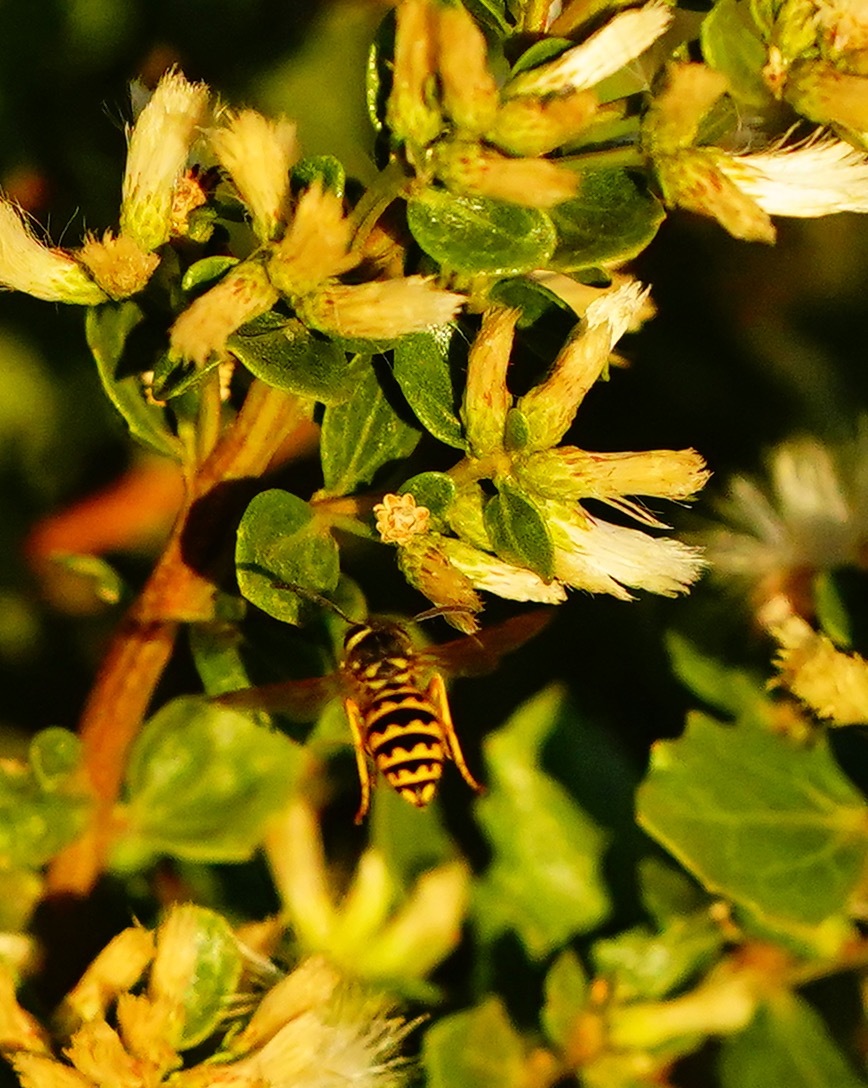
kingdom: Animalia
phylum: Arthropoda
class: Insecta
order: Hymenoptera
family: Vespidae
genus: Vespula
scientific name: Vespula pensylvanica
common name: Western yellowjacket
